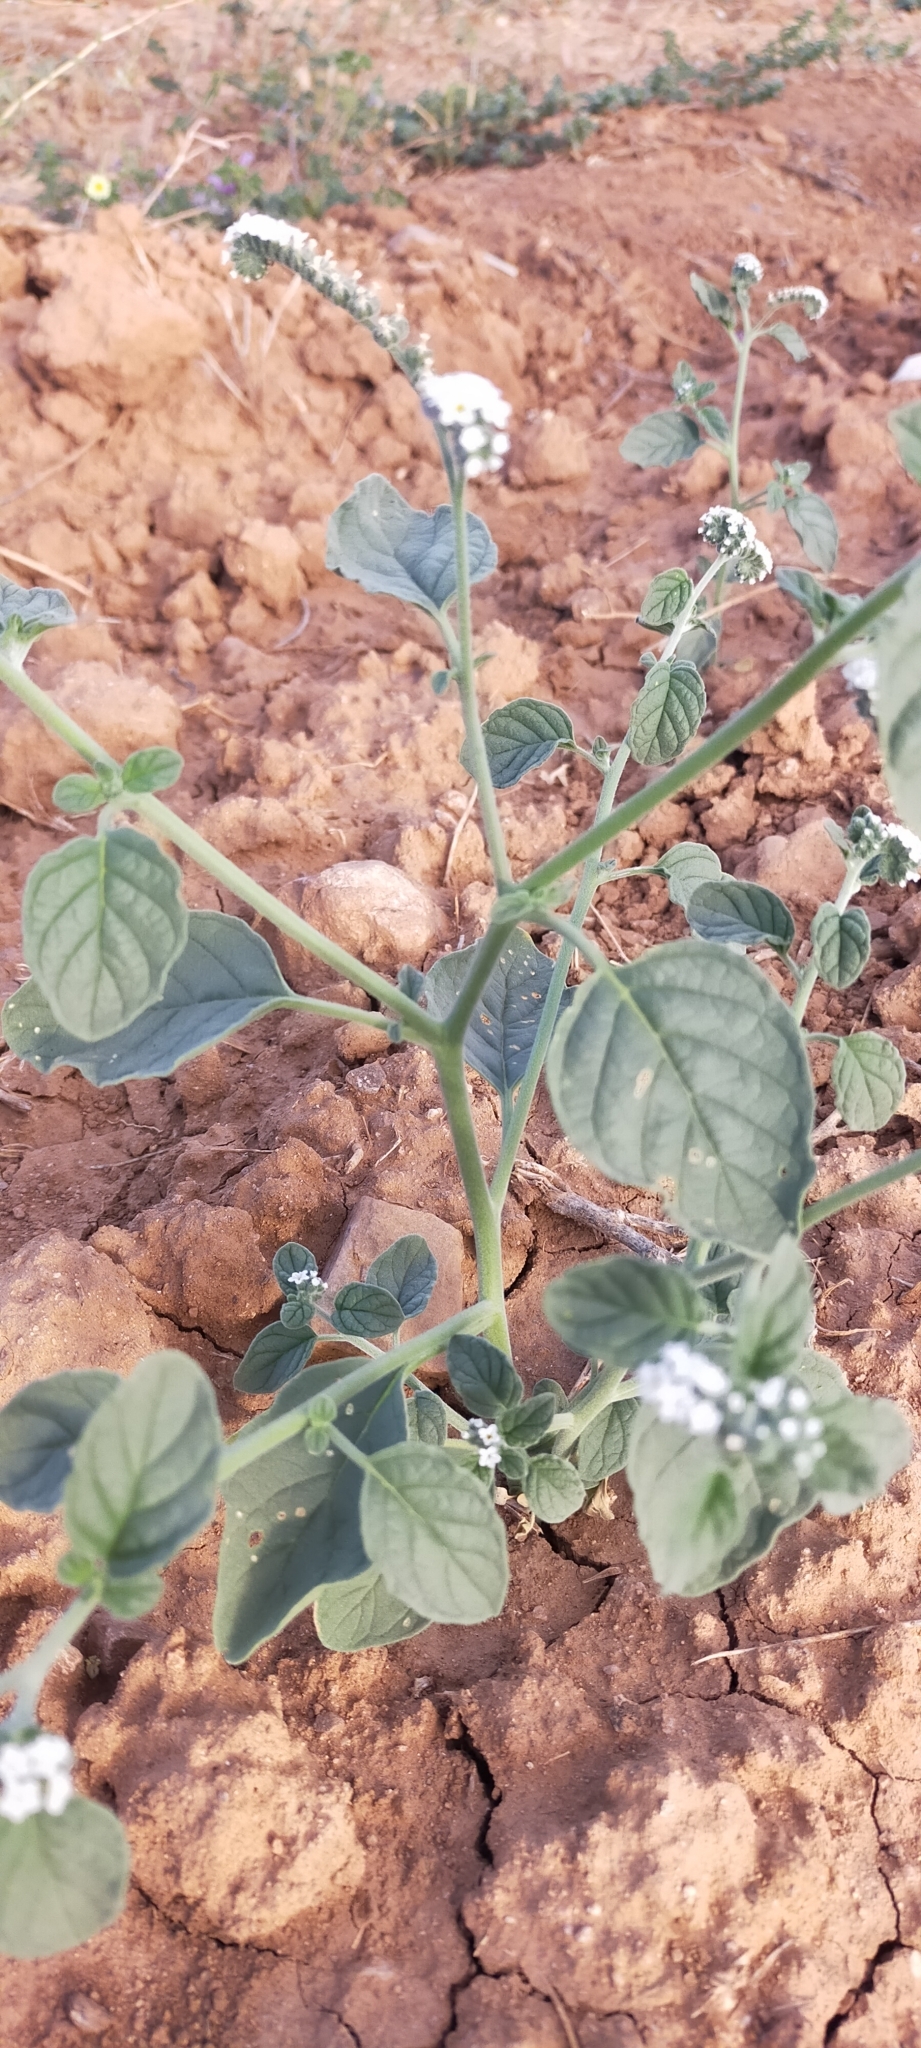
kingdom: Plantae
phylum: Tracheophyta
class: Magnoliopsida
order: Boraginales
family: Heliotropiaceae
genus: Heliotropium
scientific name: Heliotropium europaeum
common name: European heliotrope
